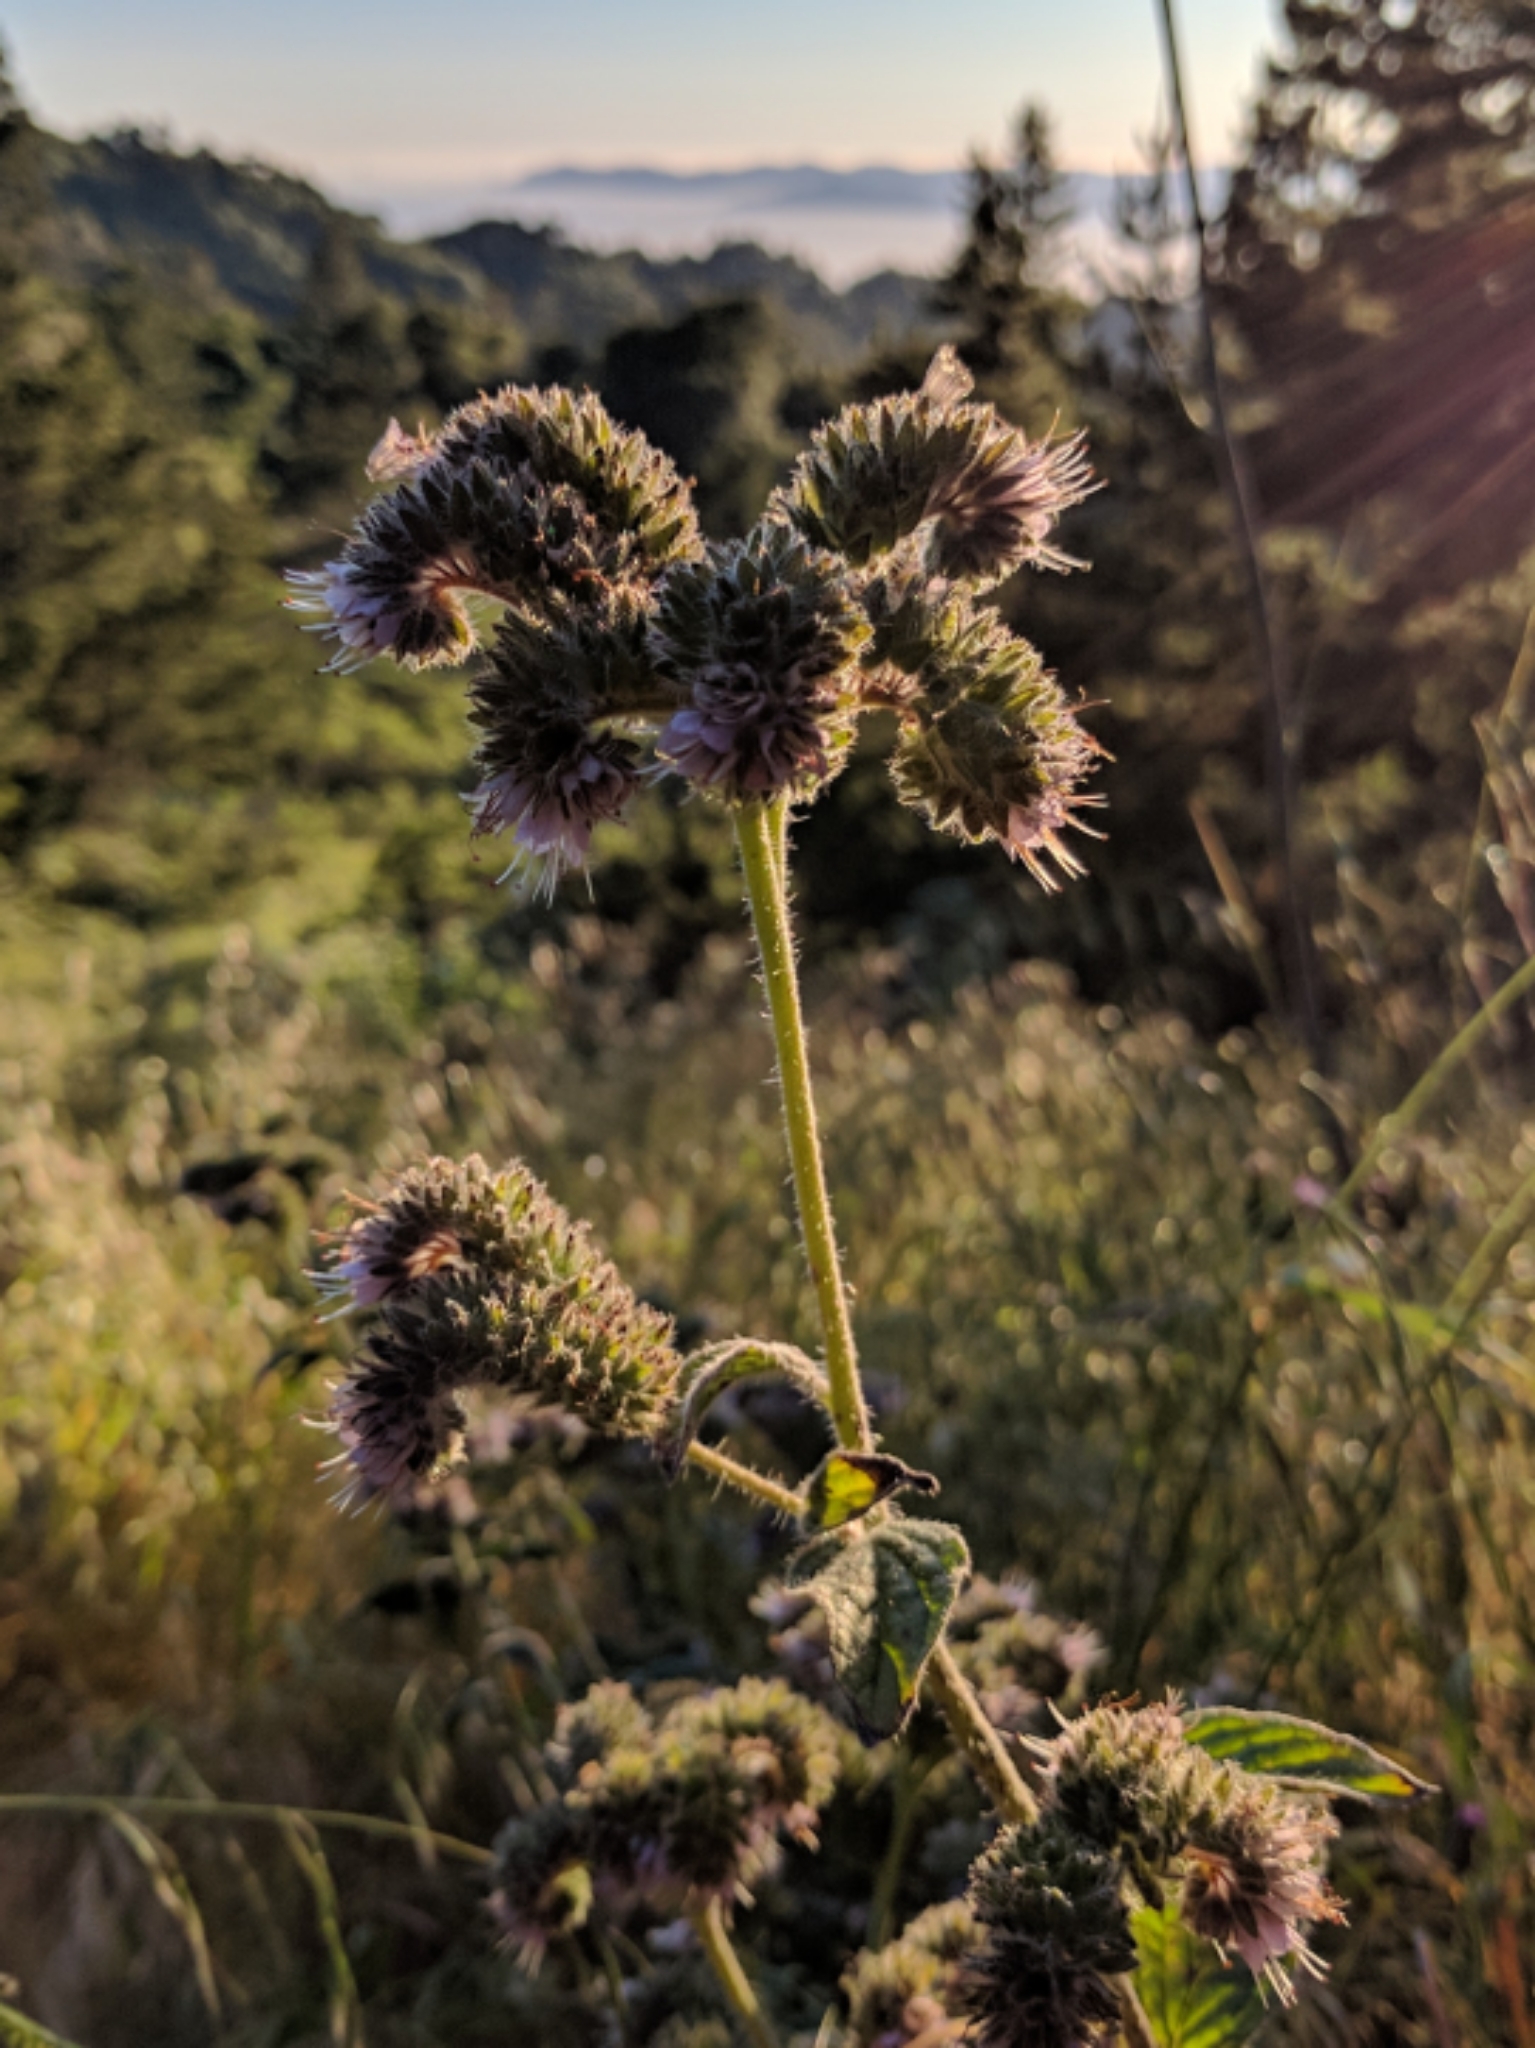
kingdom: Plantae
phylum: Tracheophyta
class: Magnoliopsida
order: Boraginales
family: Hydrophyllaceae
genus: Phacelia
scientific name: Phacelia californica
